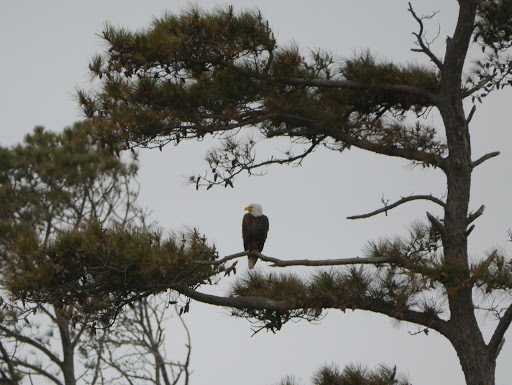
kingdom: Animalia
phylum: Chordata
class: Aves
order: Accipitriformes
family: Accipitridae
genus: Haliaeetus
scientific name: Haliaeetus leucocephalus
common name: Bald eagle
